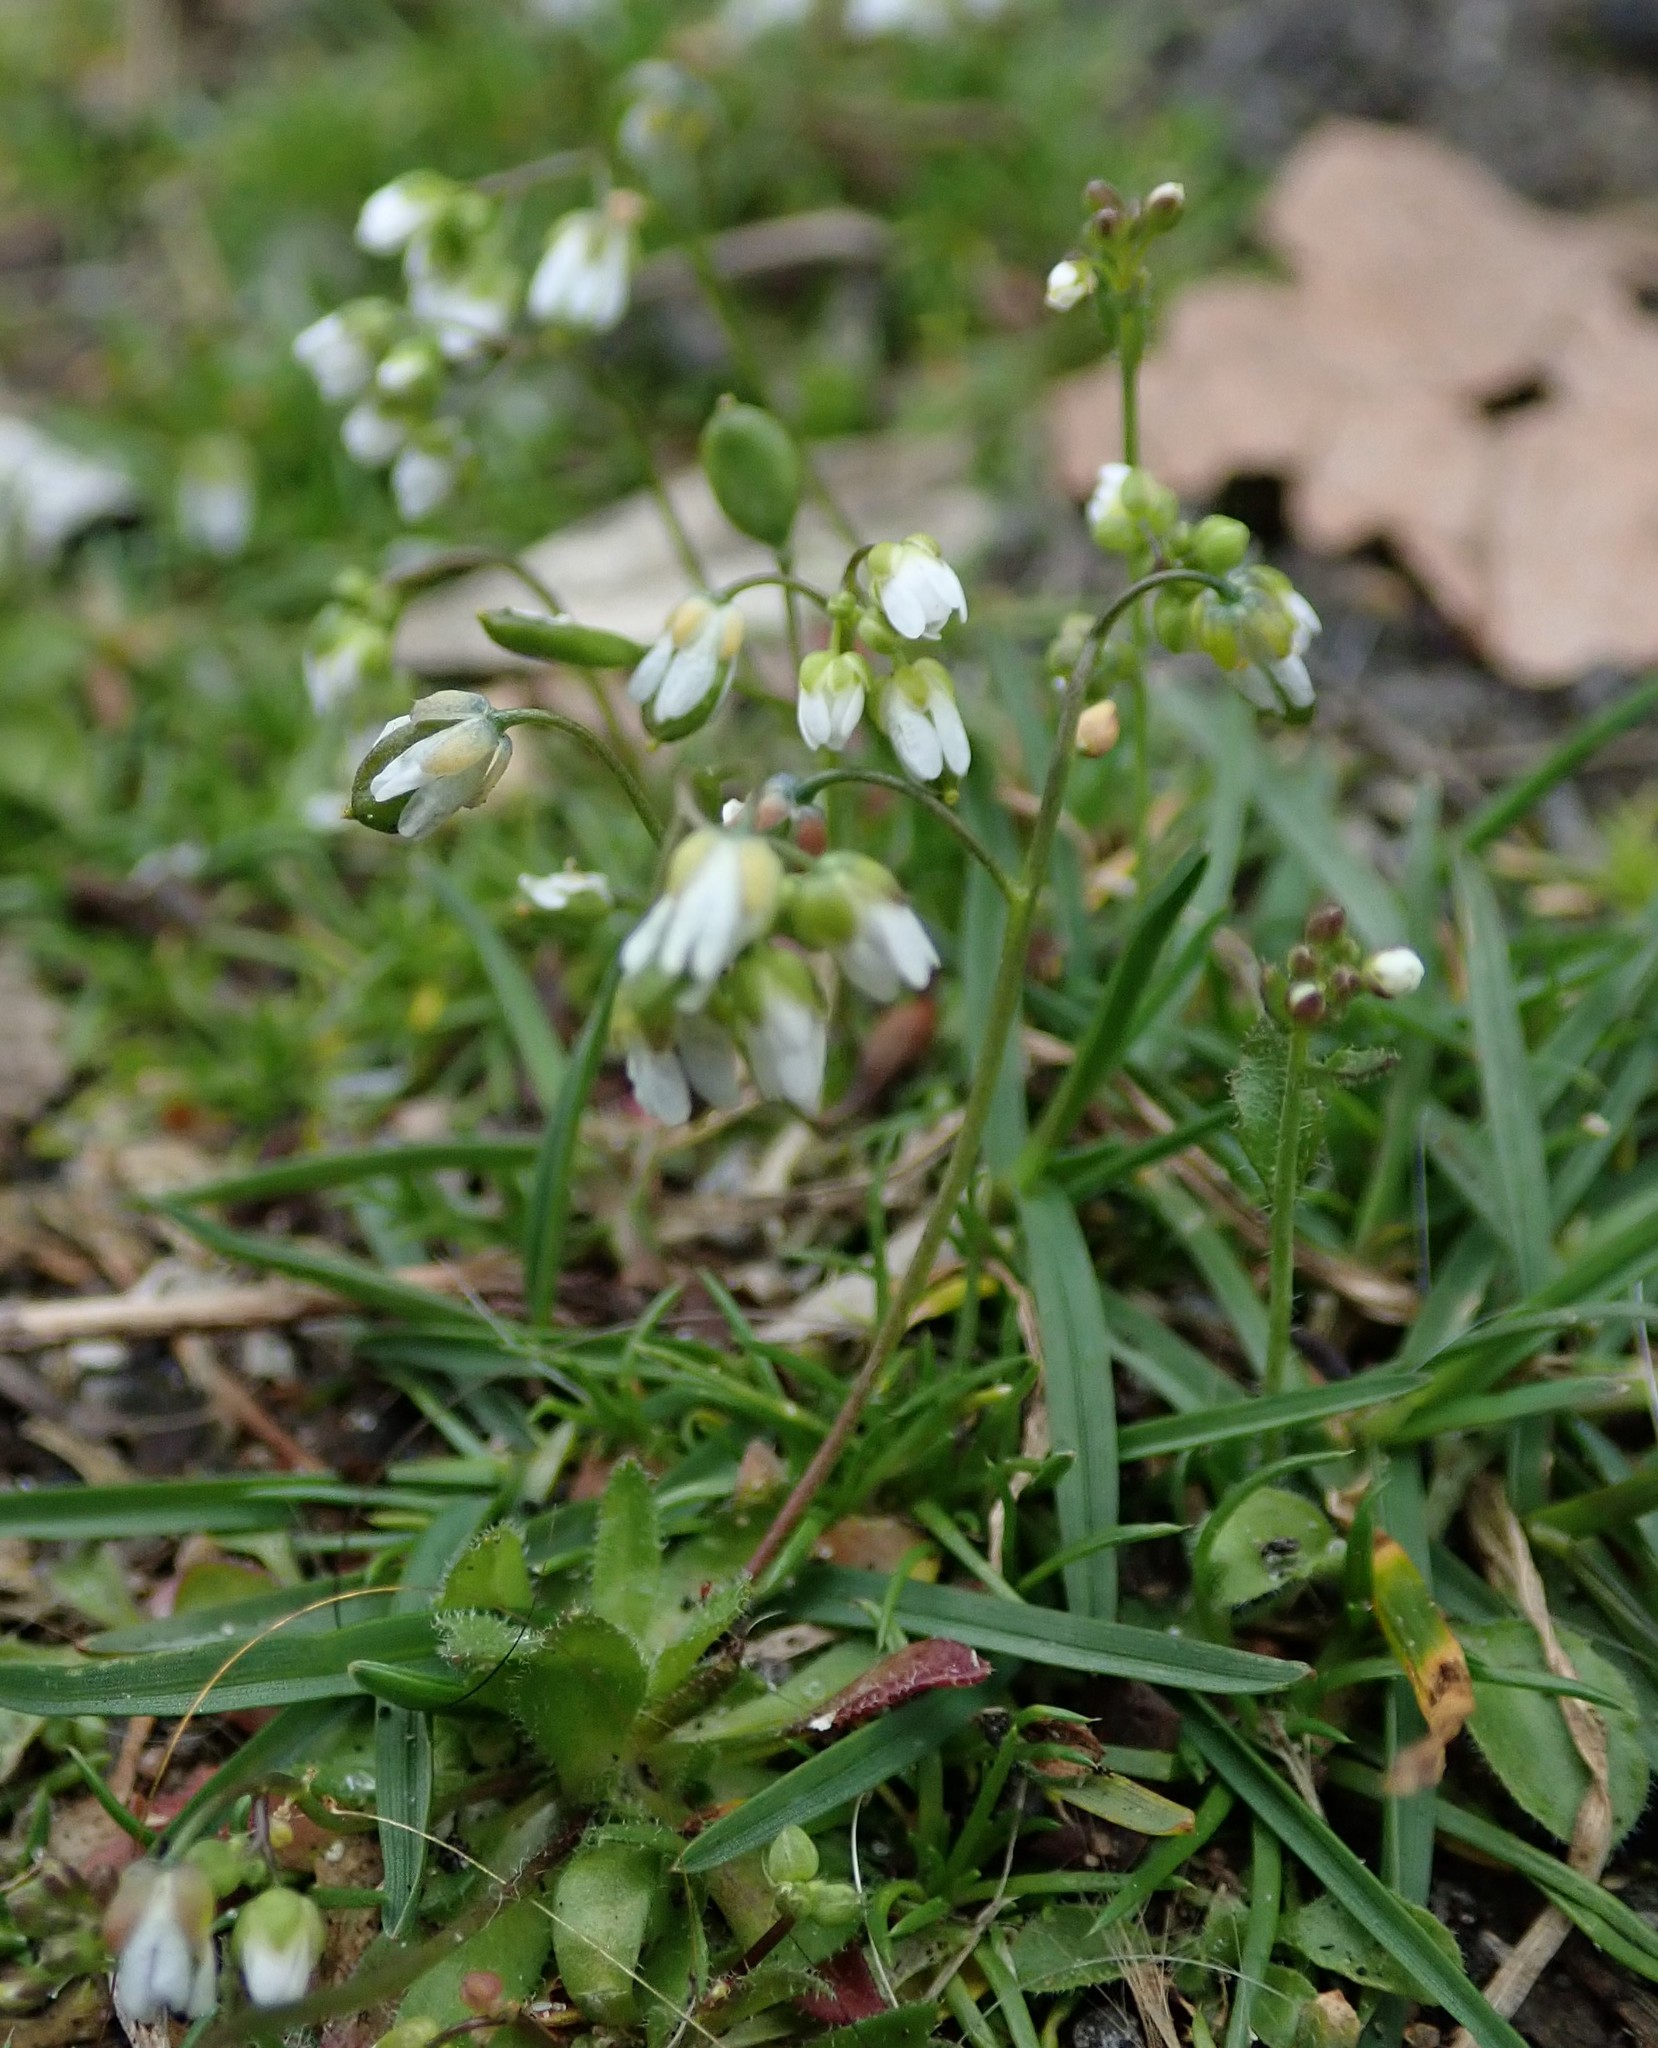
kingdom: Plantae
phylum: Tracheophyta
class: Magnoliopsida
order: Brassicales
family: Brassicaceae
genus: Draba
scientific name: Draba verna
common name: Spring draba
